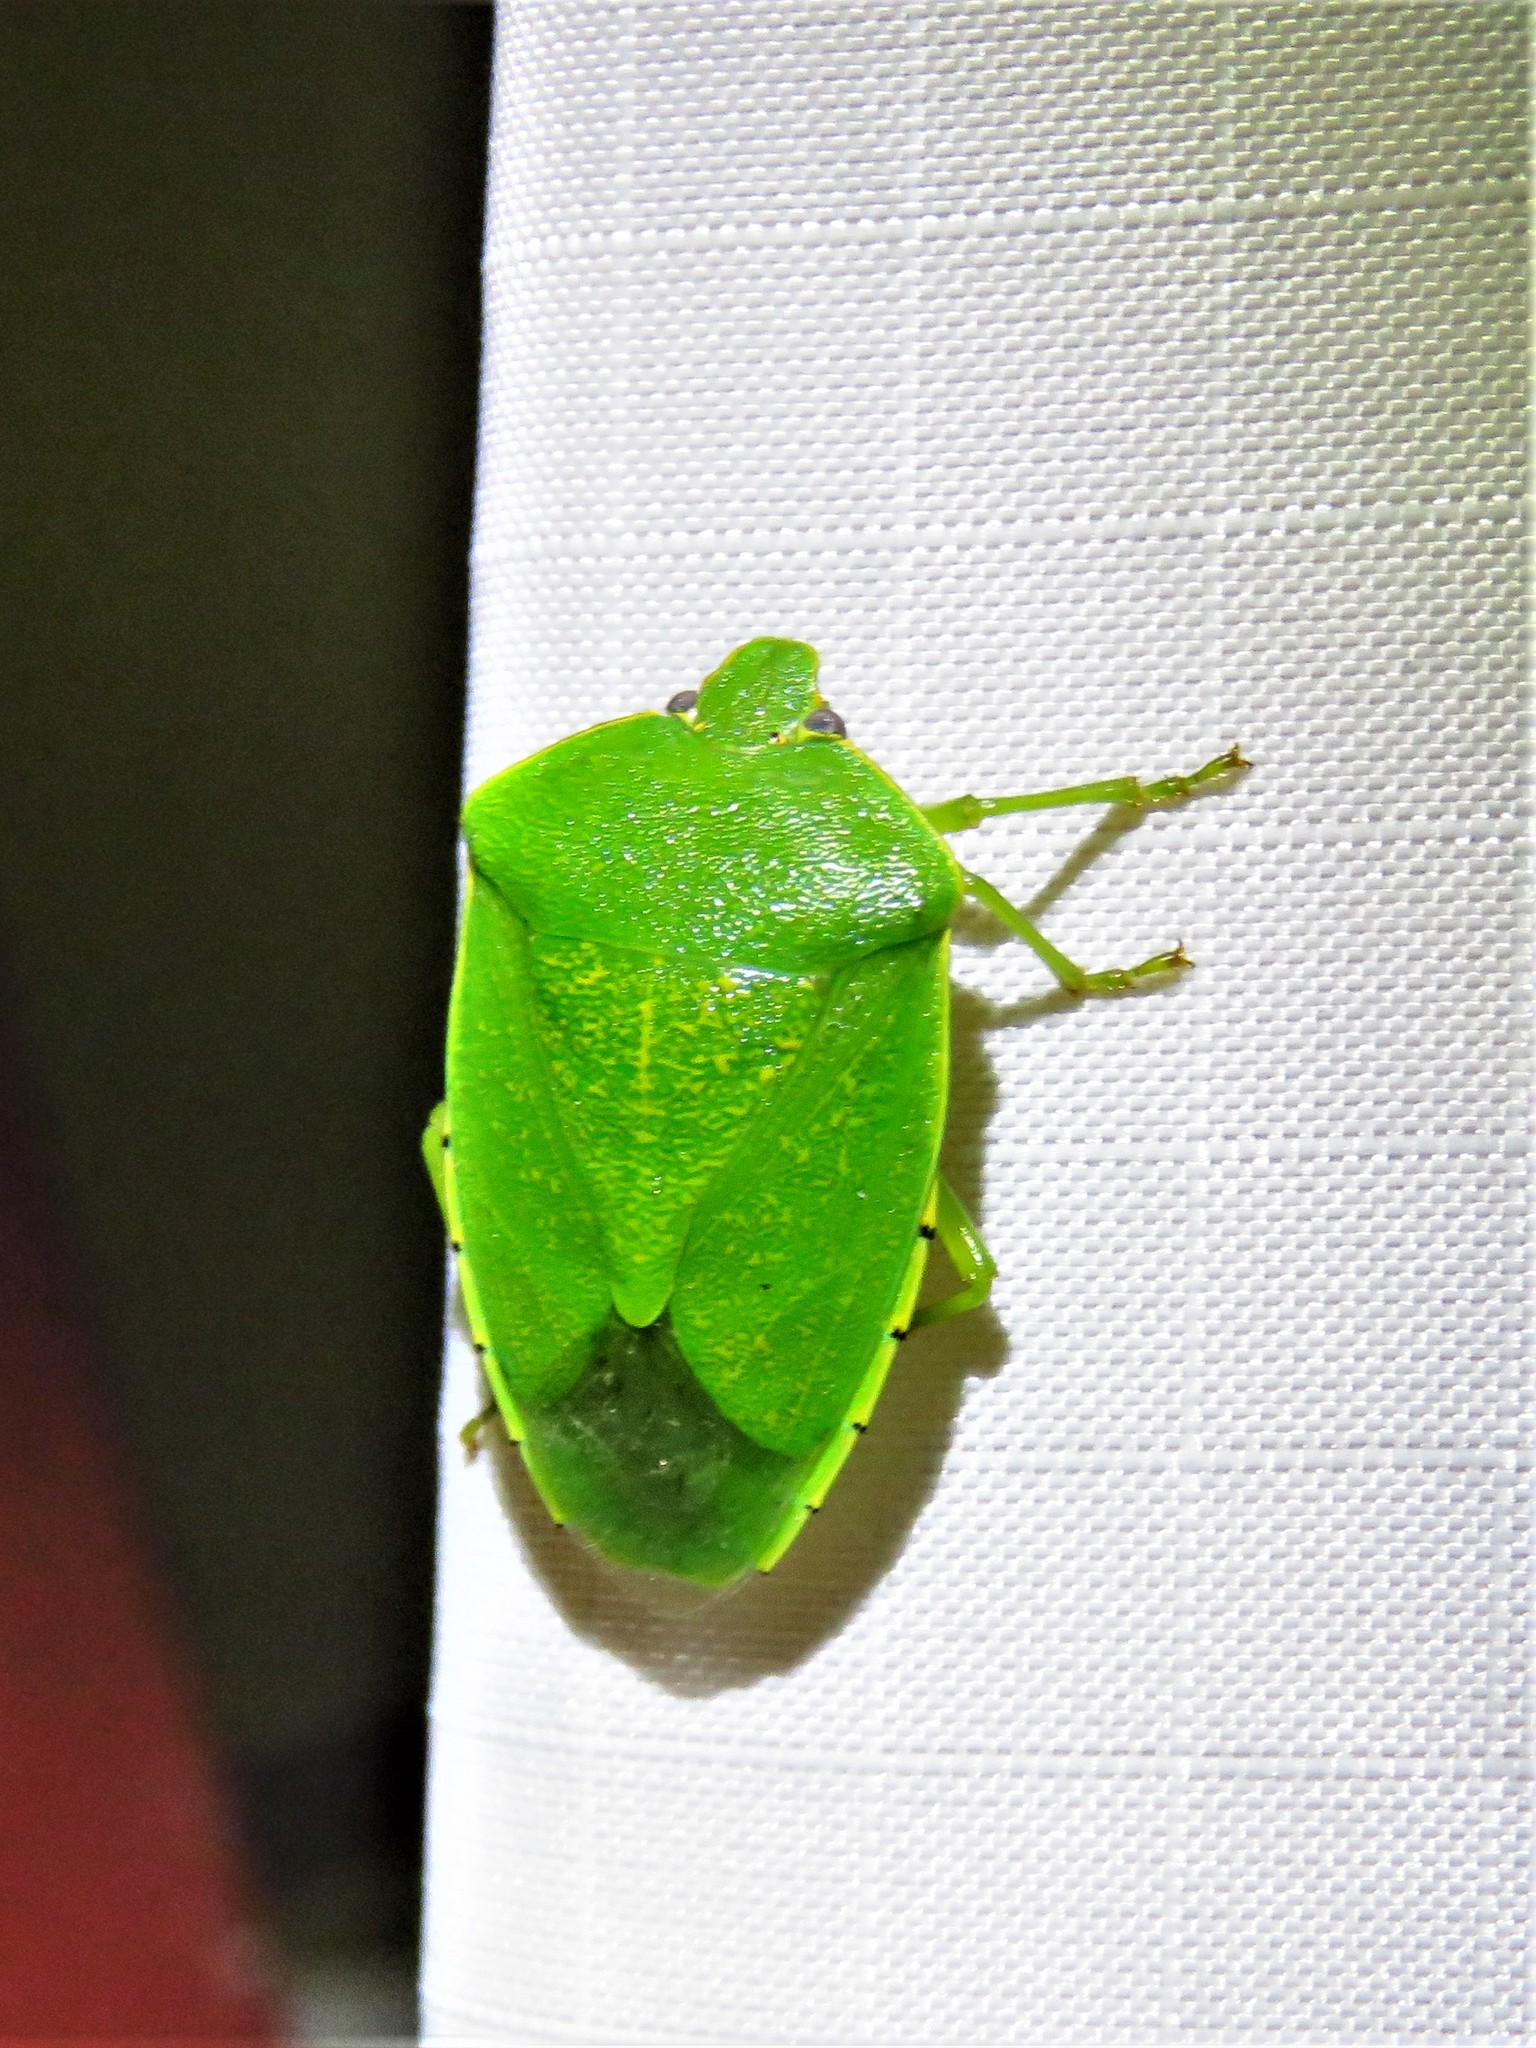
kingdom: Animalia
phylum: Arthropoda
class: Insecta
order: Hemiptera
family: Pentatomidae
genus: Chinavia
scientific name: Chinavia hilaris
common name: Green stink bug
